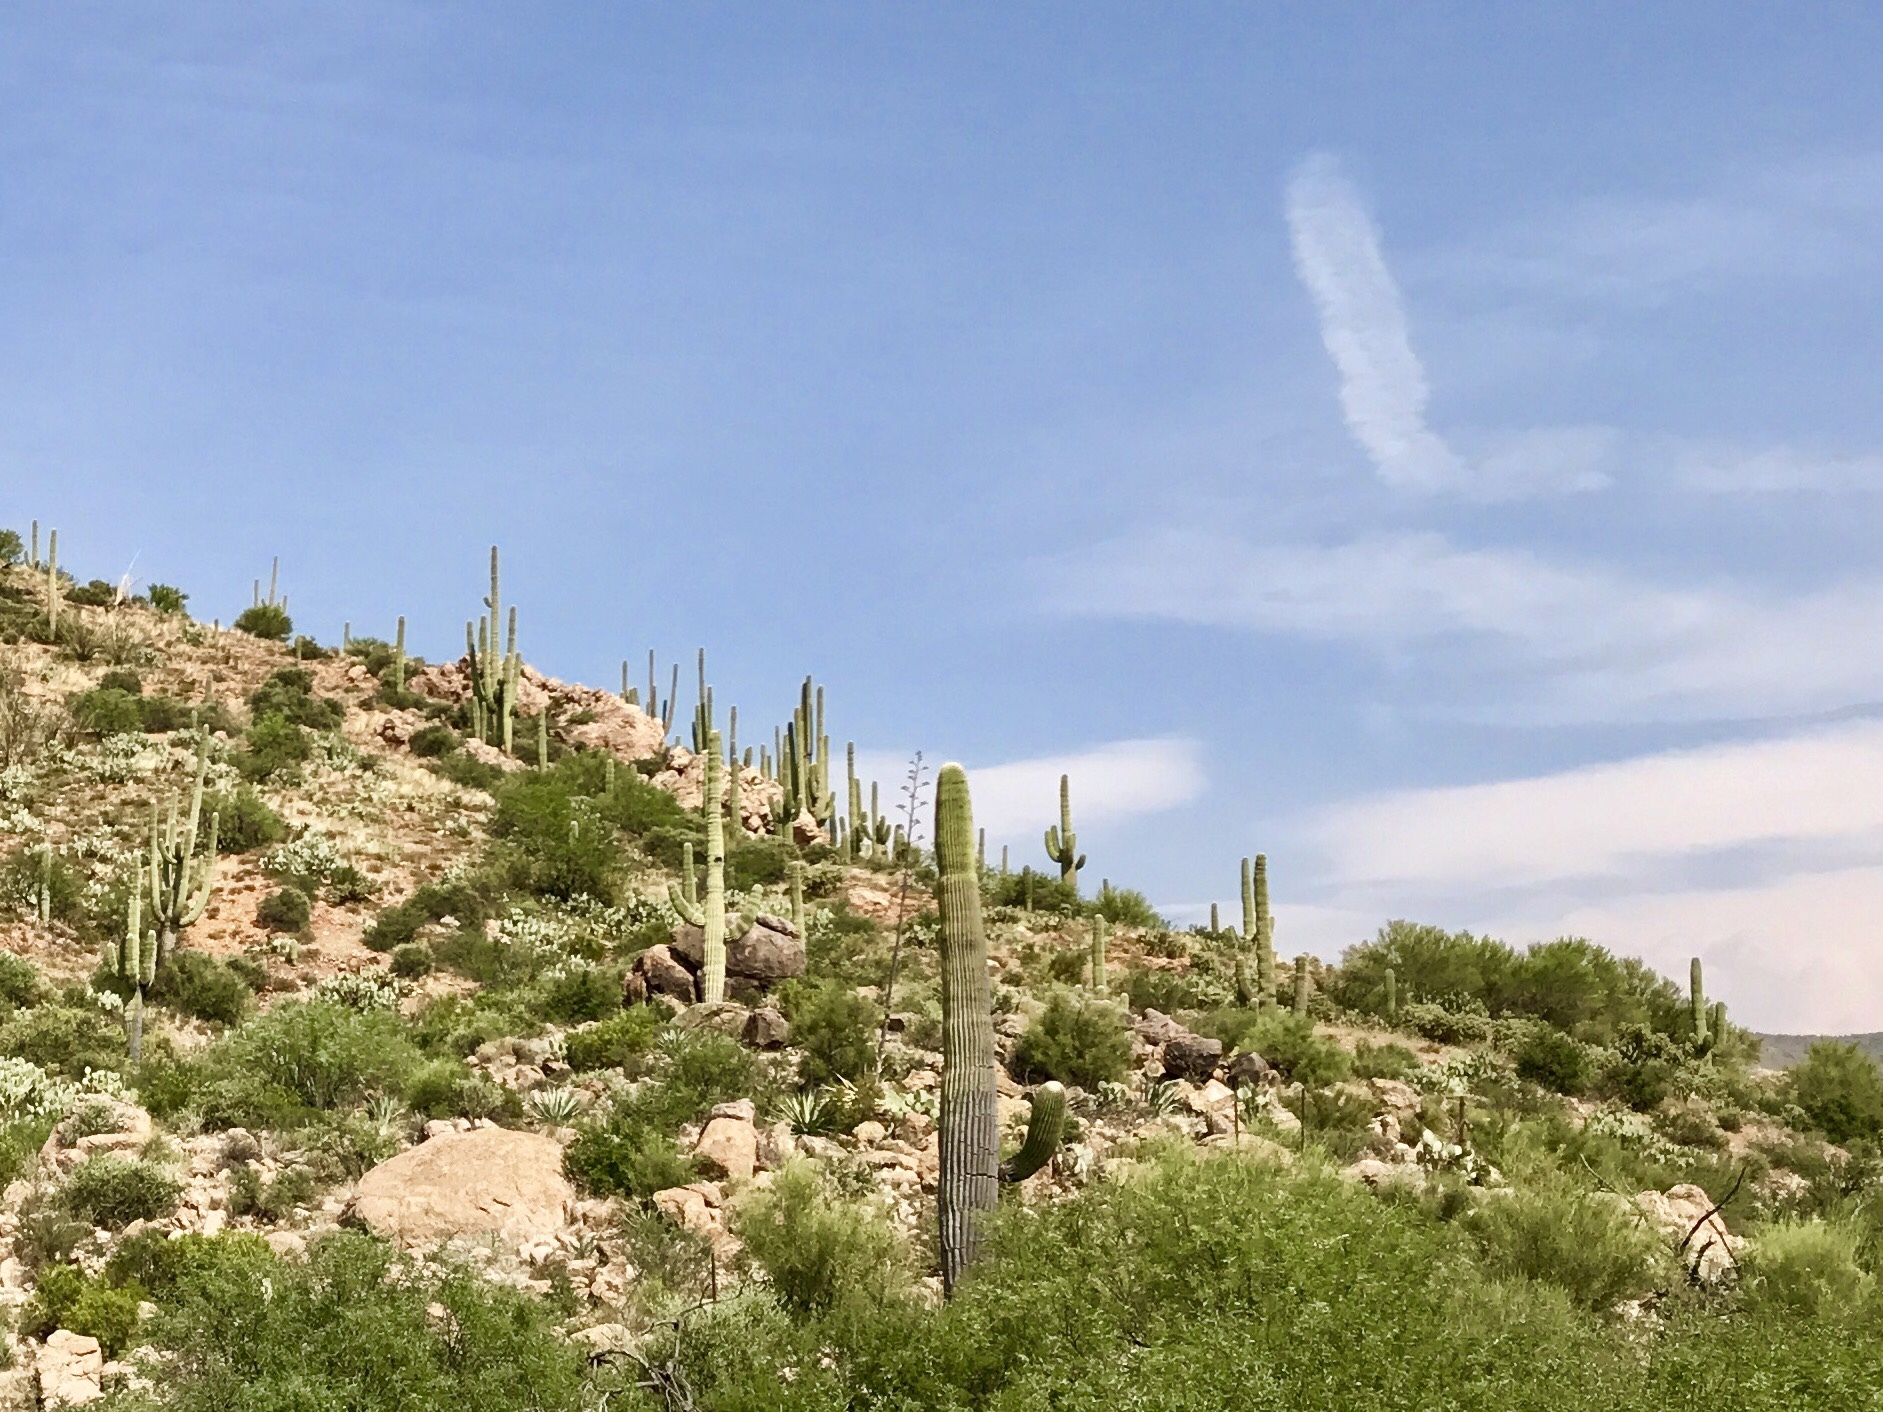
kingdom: Plantae
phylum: Tracheophyta
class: Magnoliopsida
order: Caryophyllales
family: Cactaceae
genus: Carnegiea
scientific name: Carnegiea gigantea
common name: Saguaro
